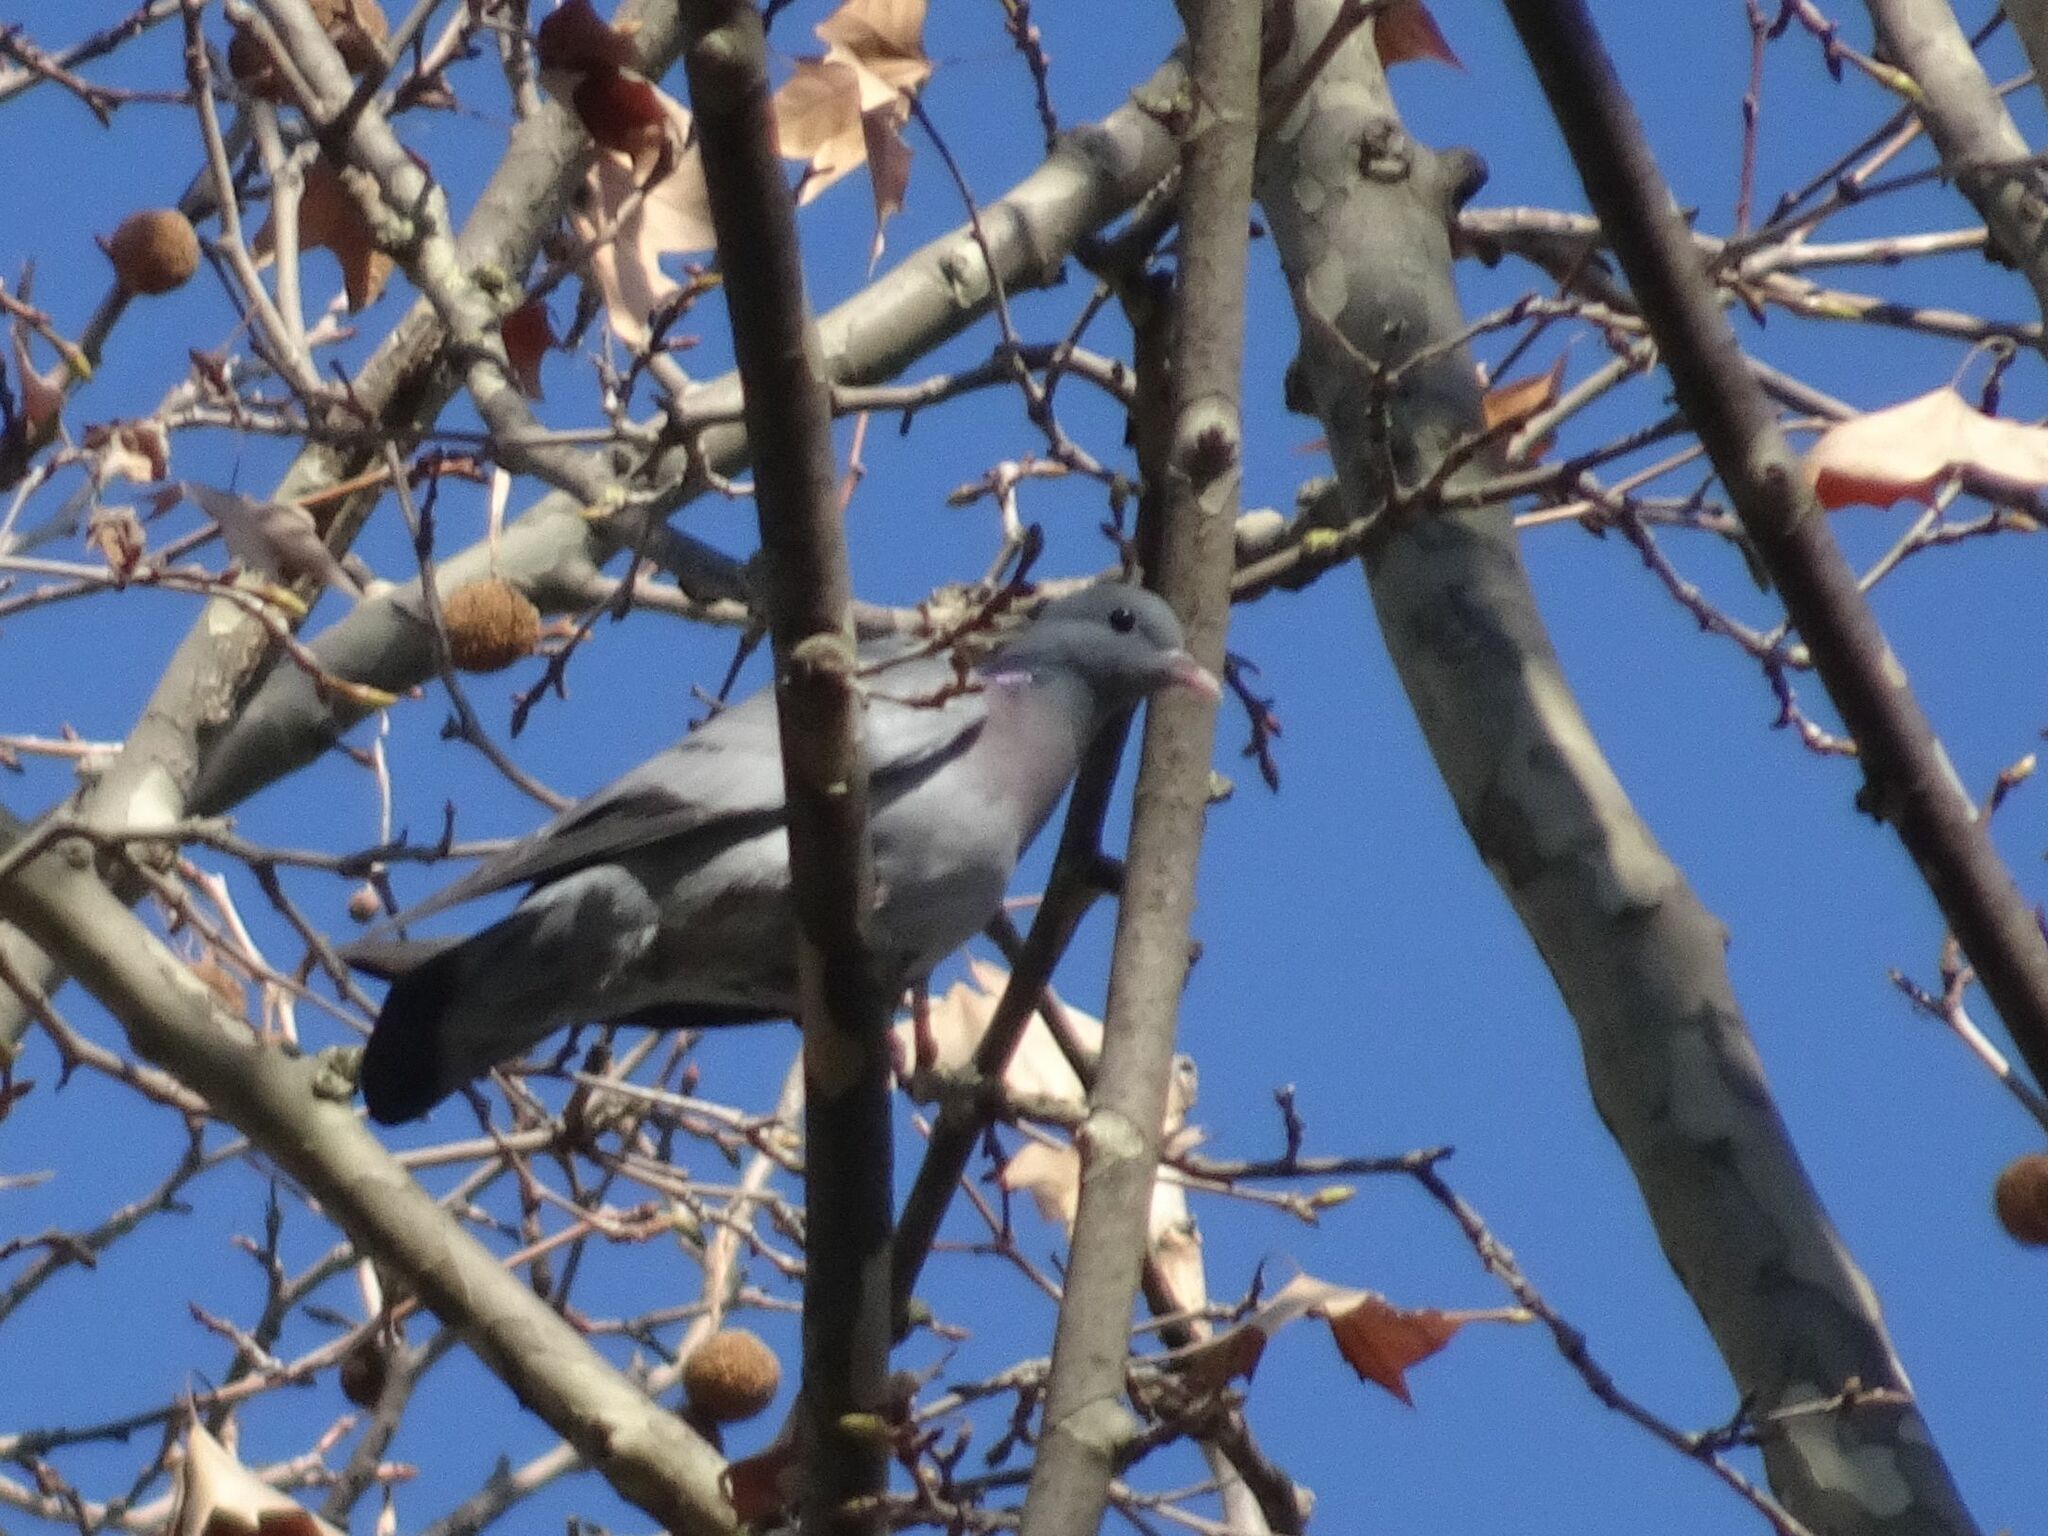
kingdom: Animalia
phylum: Chordata
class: Aves
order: Columbiformes
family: Columbidae
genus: Columba
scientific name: Columba oenas
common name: Stock dove
